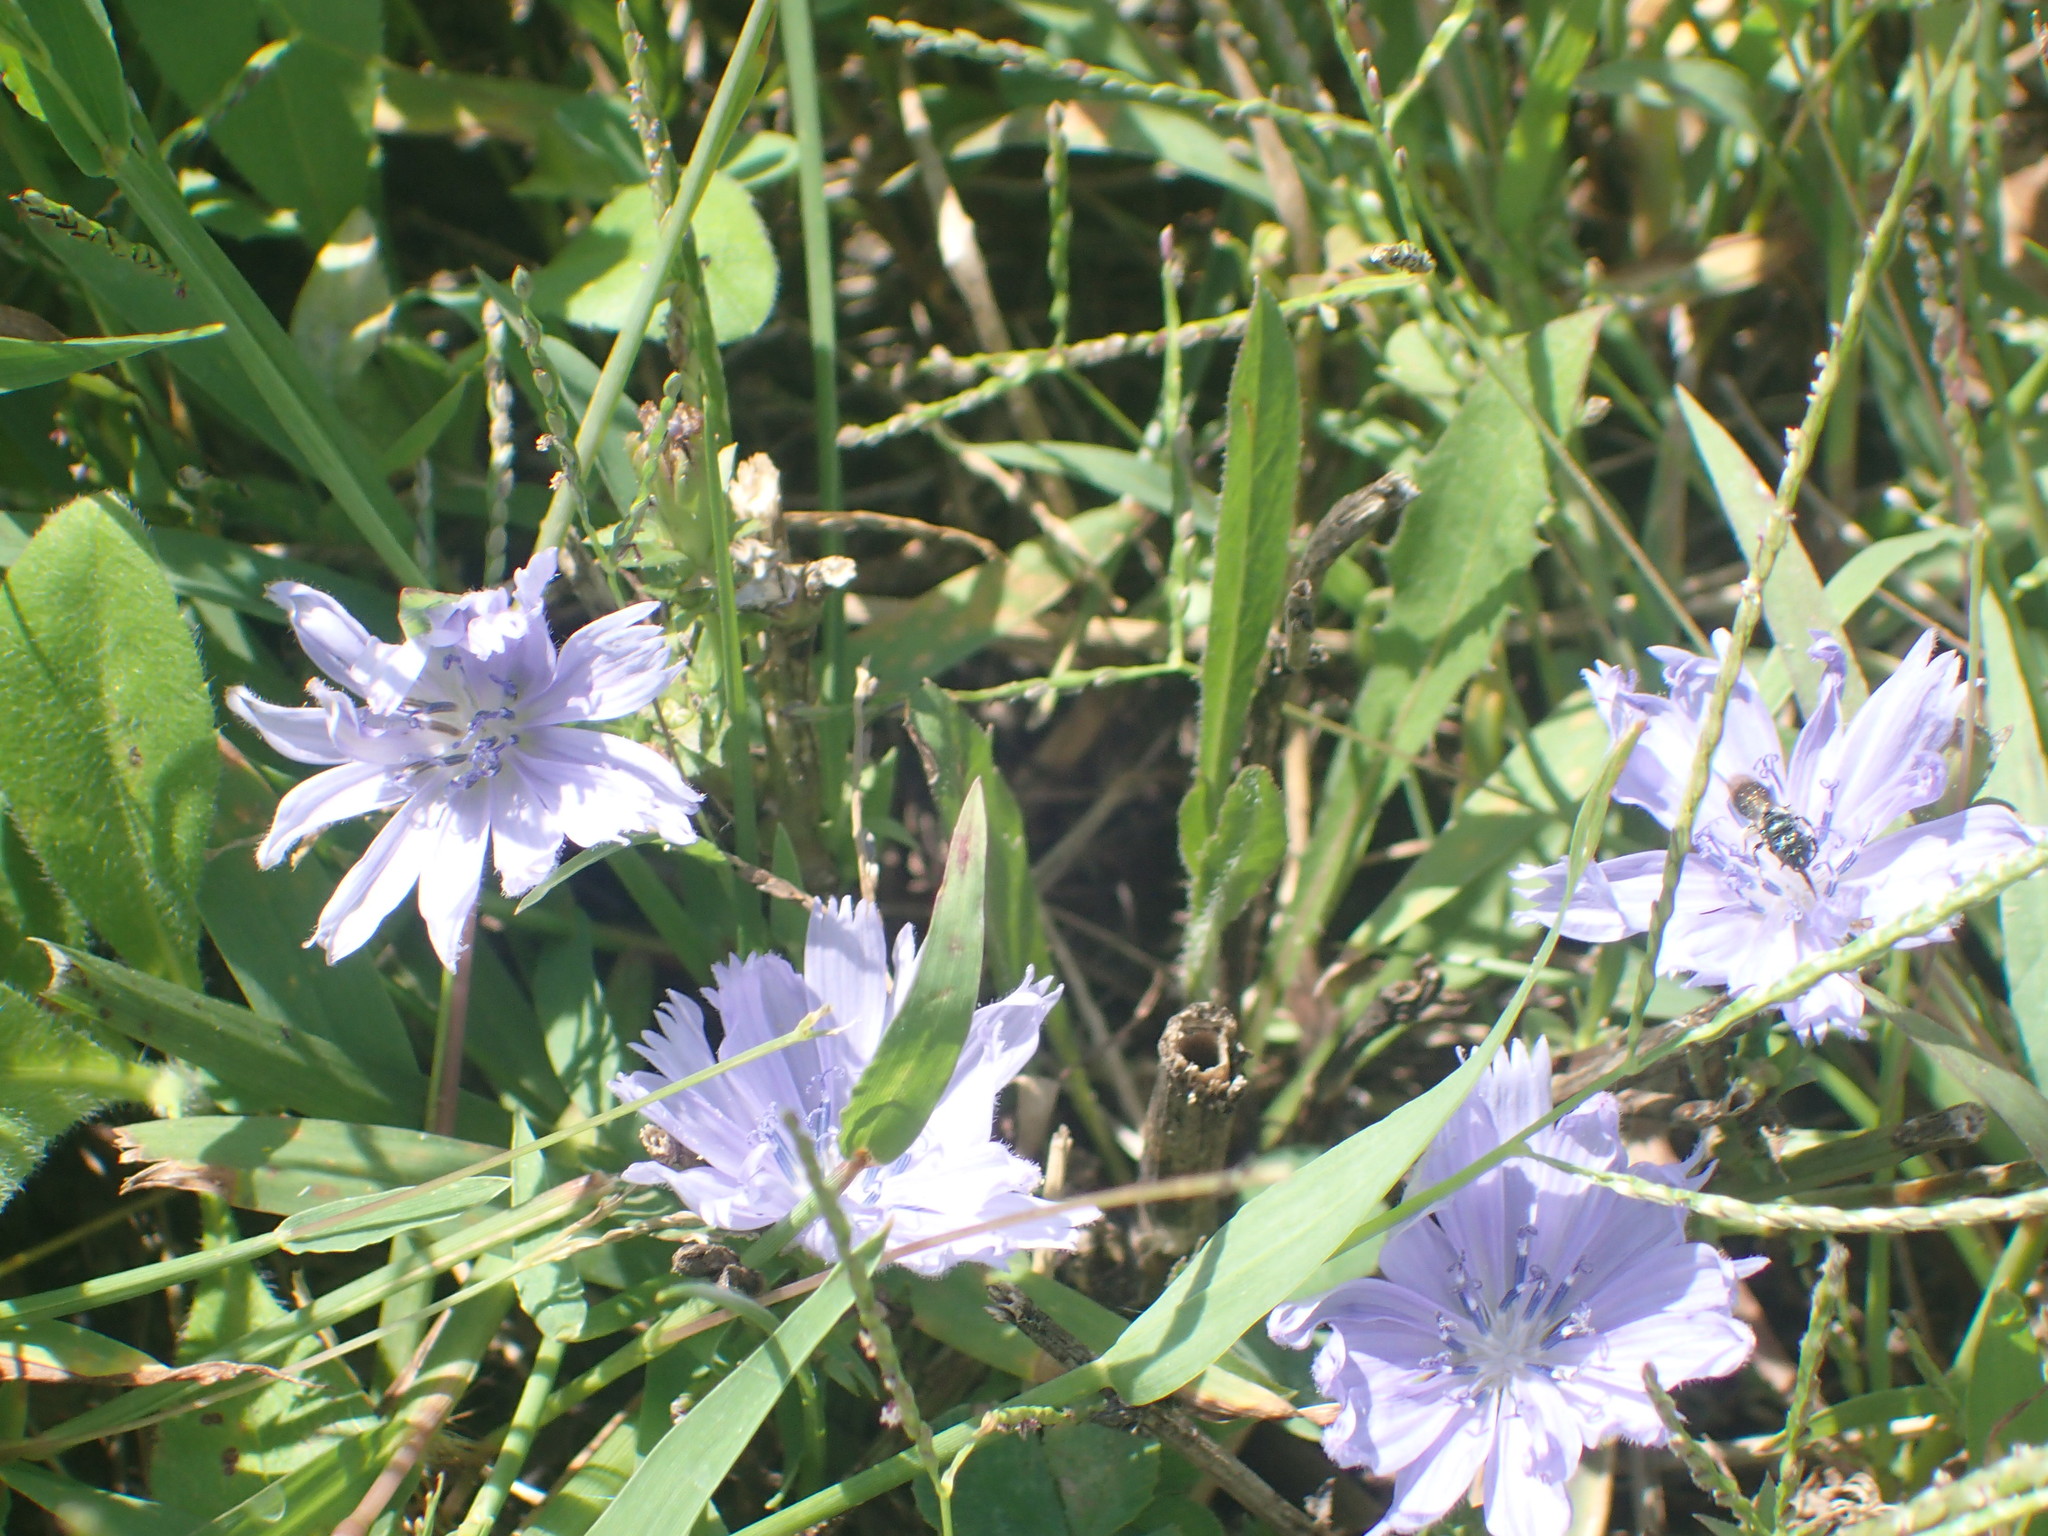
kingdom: Plantae
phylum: Tracheophyta
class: Magnoliopsida
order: Asterales
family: Asteraceae
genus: Cichorium
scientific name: Cichorium intybus
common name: Chicory
